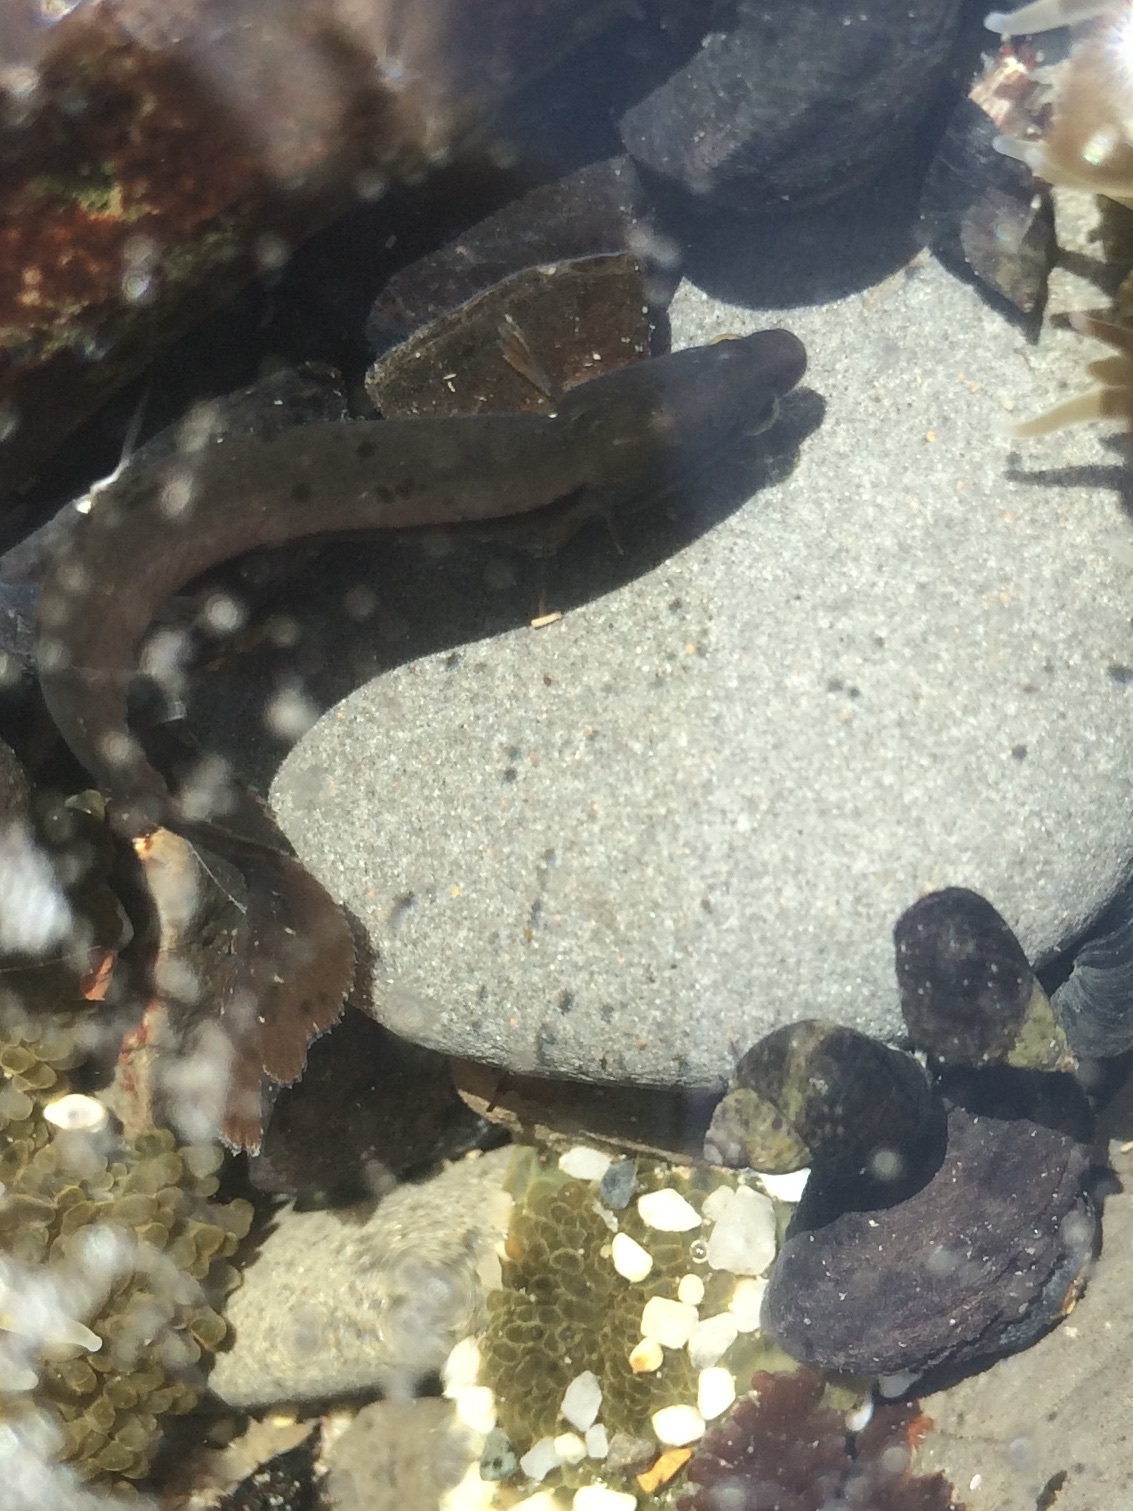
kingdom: Animalia
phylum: Chordata
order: Perciformes
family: Stichaeidae
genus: Cebidichthys
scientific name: Cebidichthys violaceus
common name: Monkeyface prickleback
